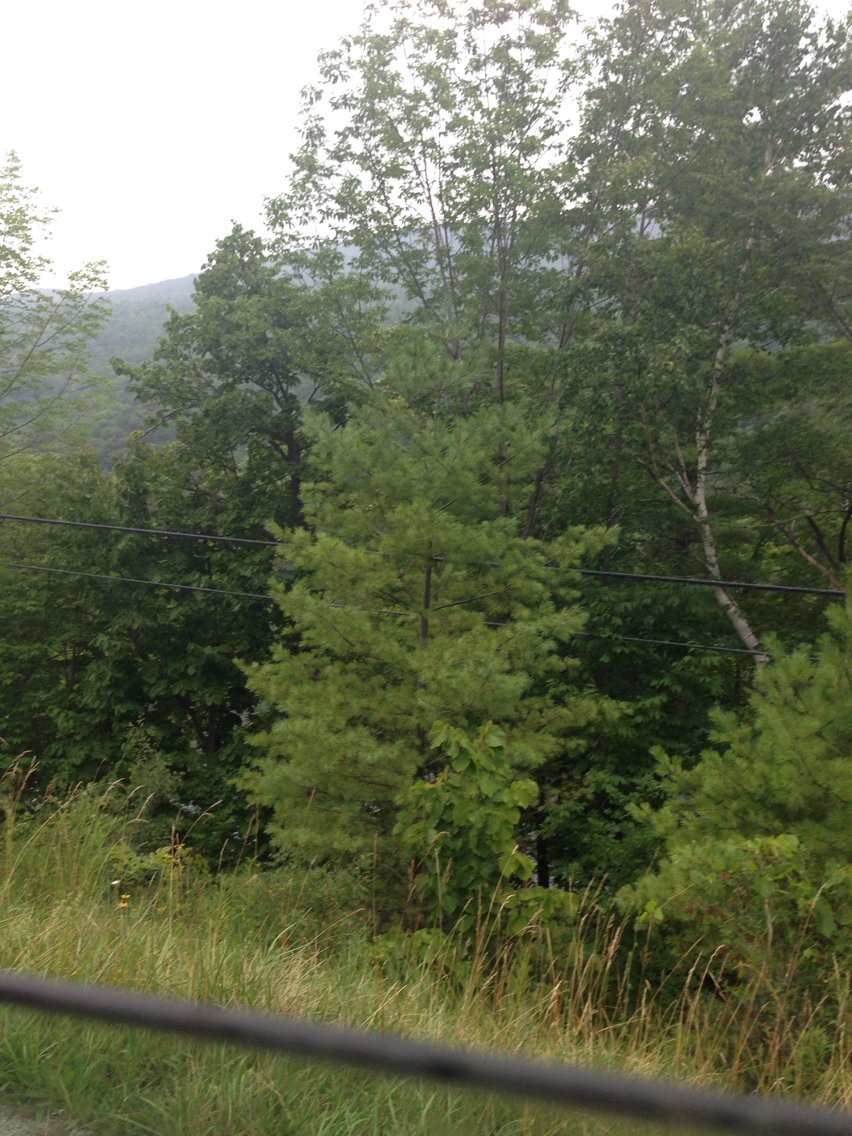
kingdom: Plantae
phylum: Tracheophyta
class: Pinopsida
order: Pinales
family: Pinaceae
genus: Pinus
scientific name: Pinus strobus
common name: Weymouth pine
